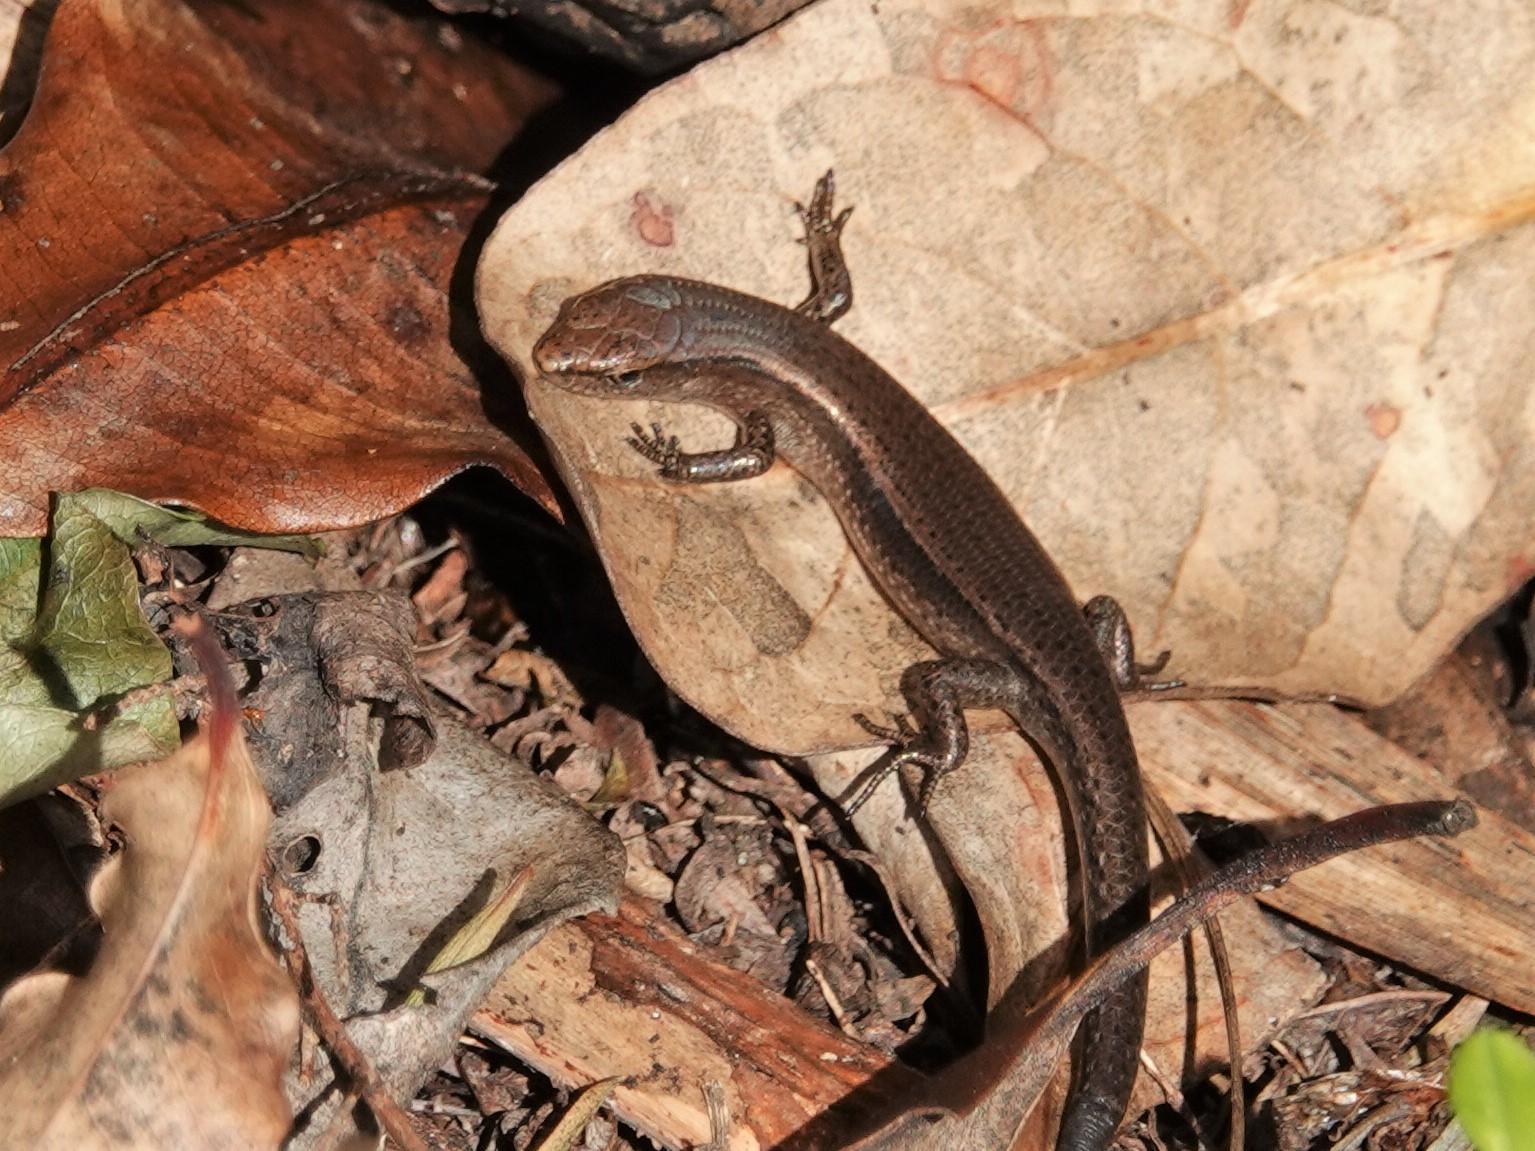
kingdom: Animalia
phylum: Chordata
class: Squamata
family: Scincidae
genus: Lampropholis
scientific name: Lampropholis delicata
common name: Plague skink
